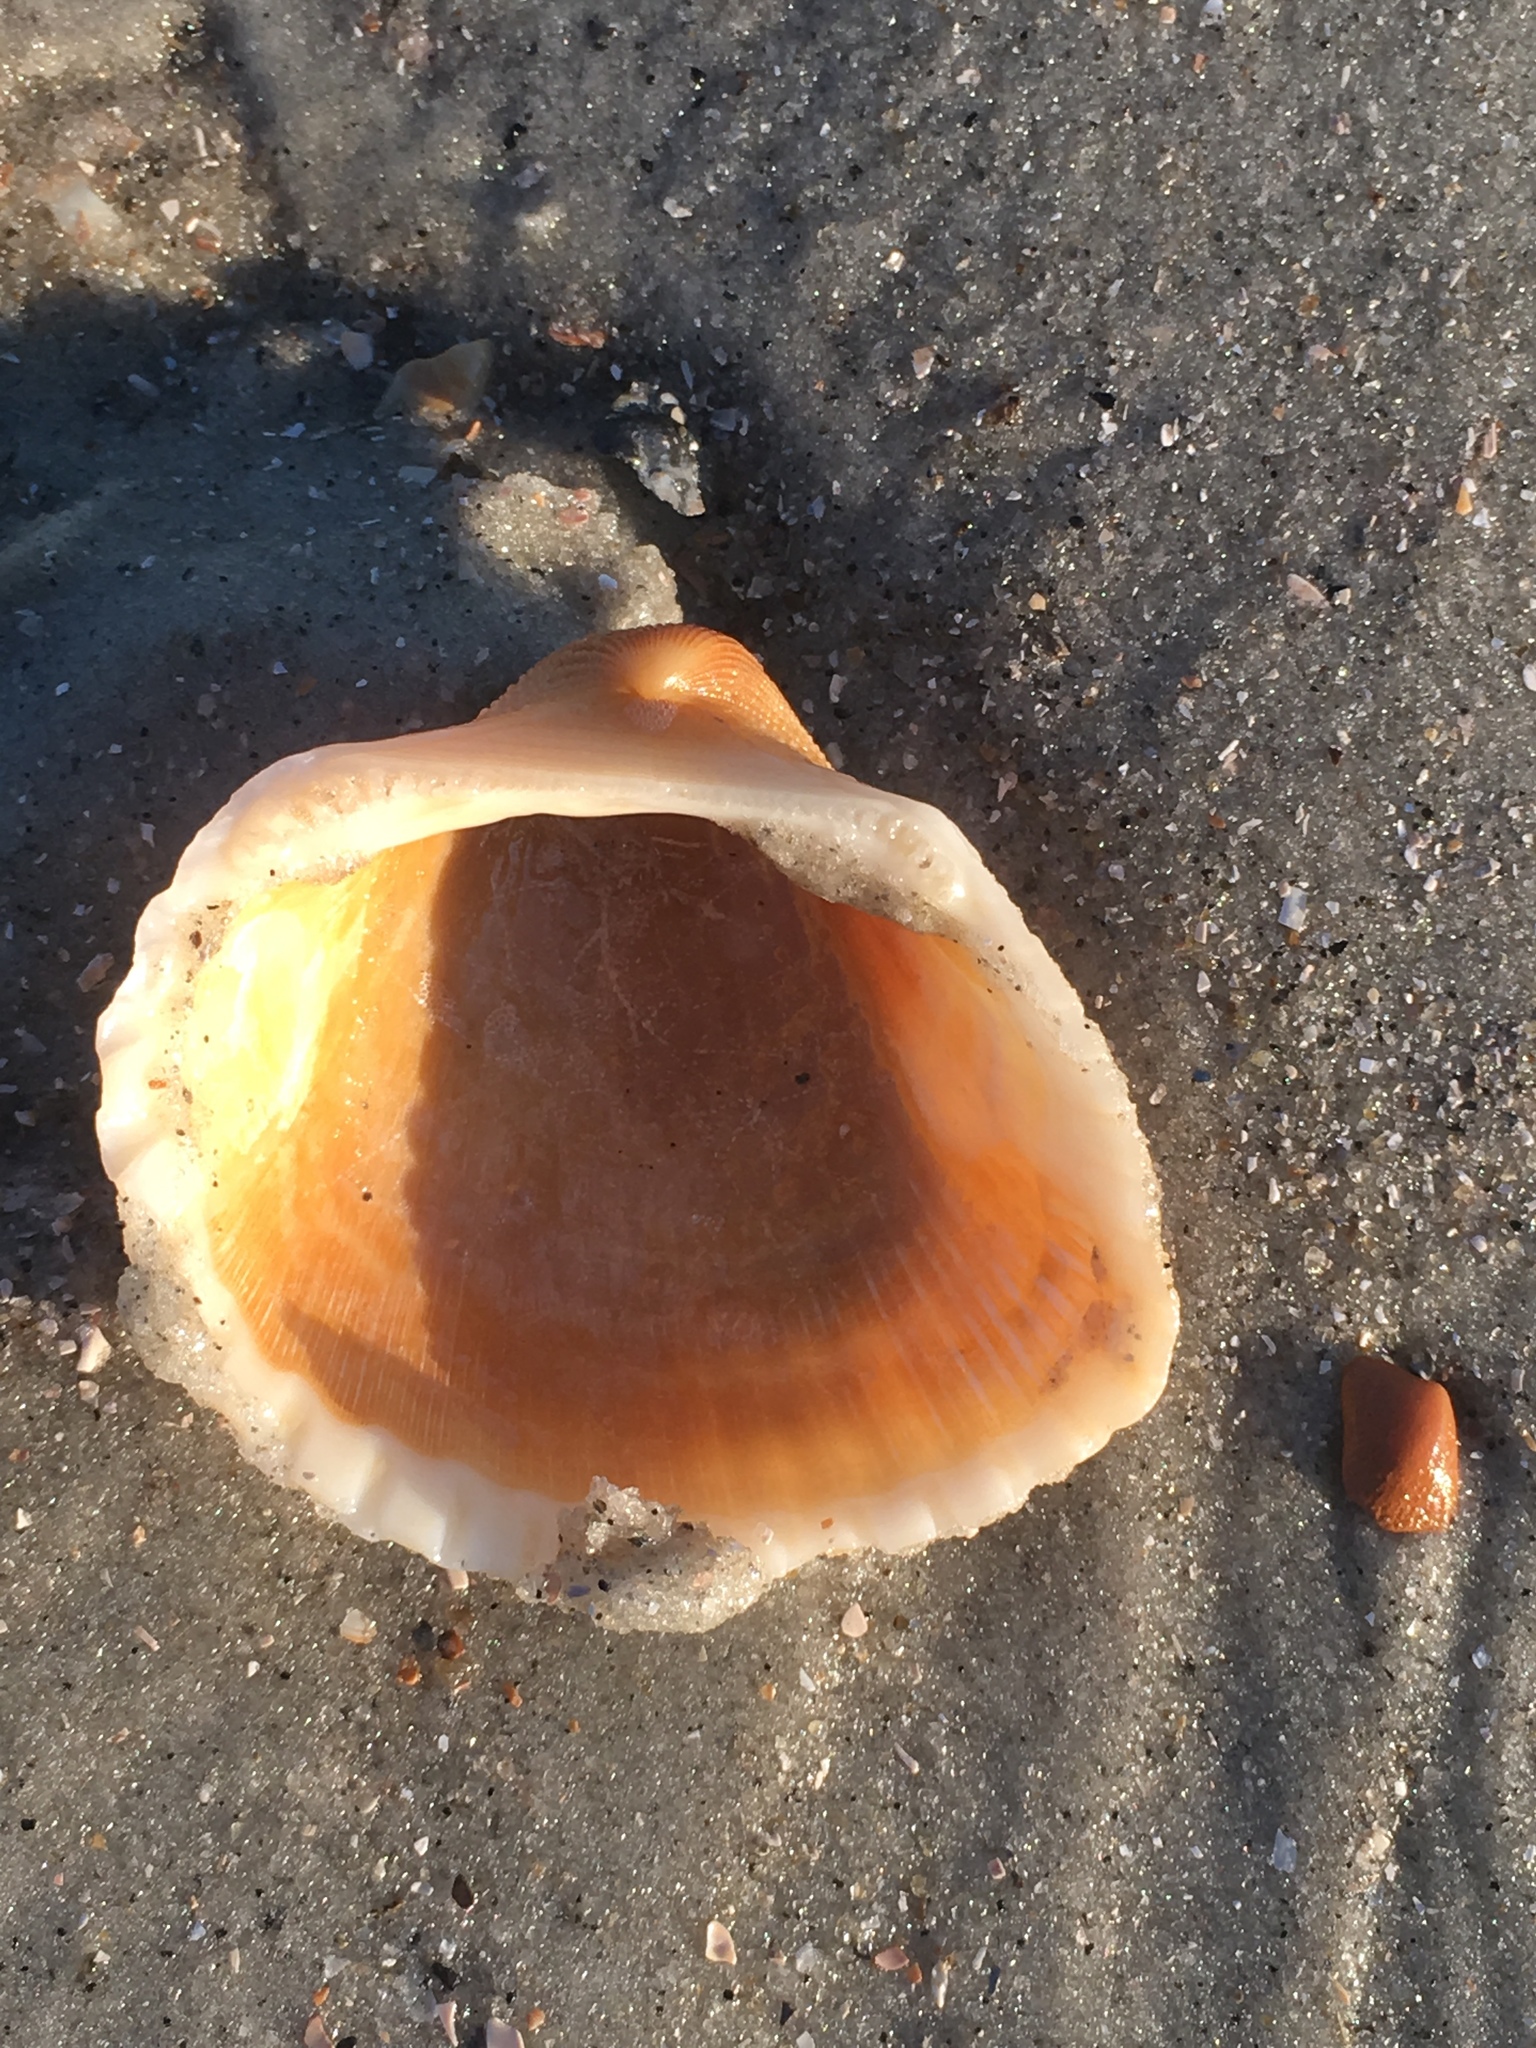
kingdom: Animalia
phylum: Mollusca
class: Bivalvia
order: Arcida
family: Arcidae
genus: Anadara
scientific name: Anadara brasiliana
